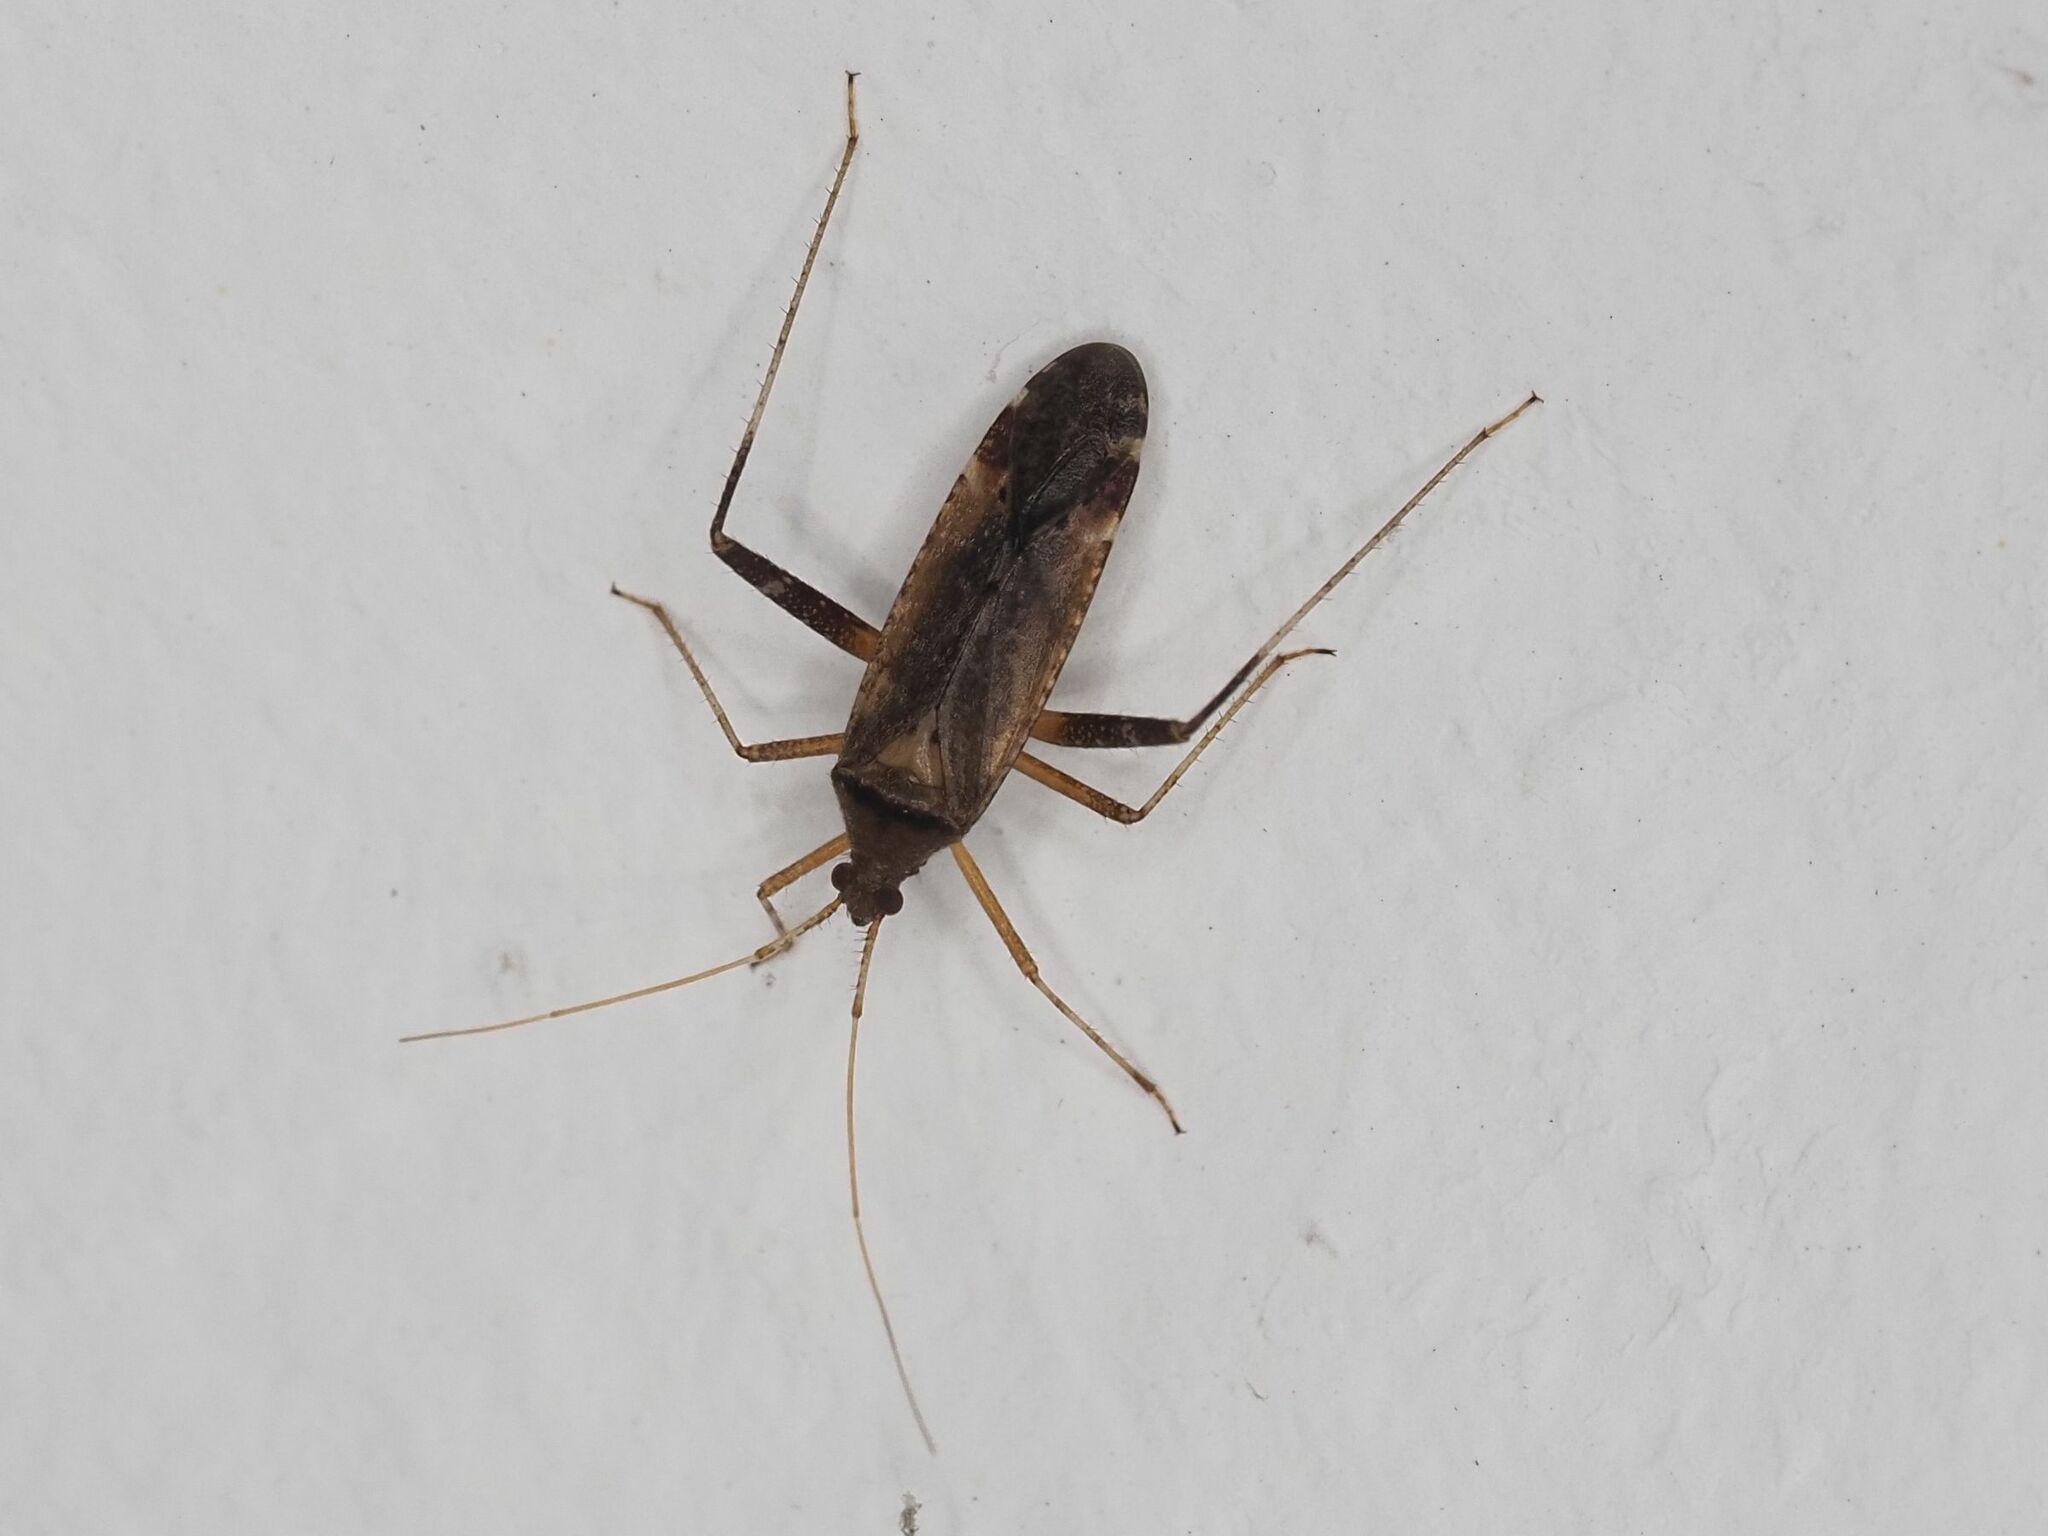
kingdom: Animalia
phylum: Arthropoda
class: Insecta
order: Hemiptera
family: Miridae
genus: Closterotomus
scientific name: Closterotomus fulvomaculatus
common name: Spotted plant bug
